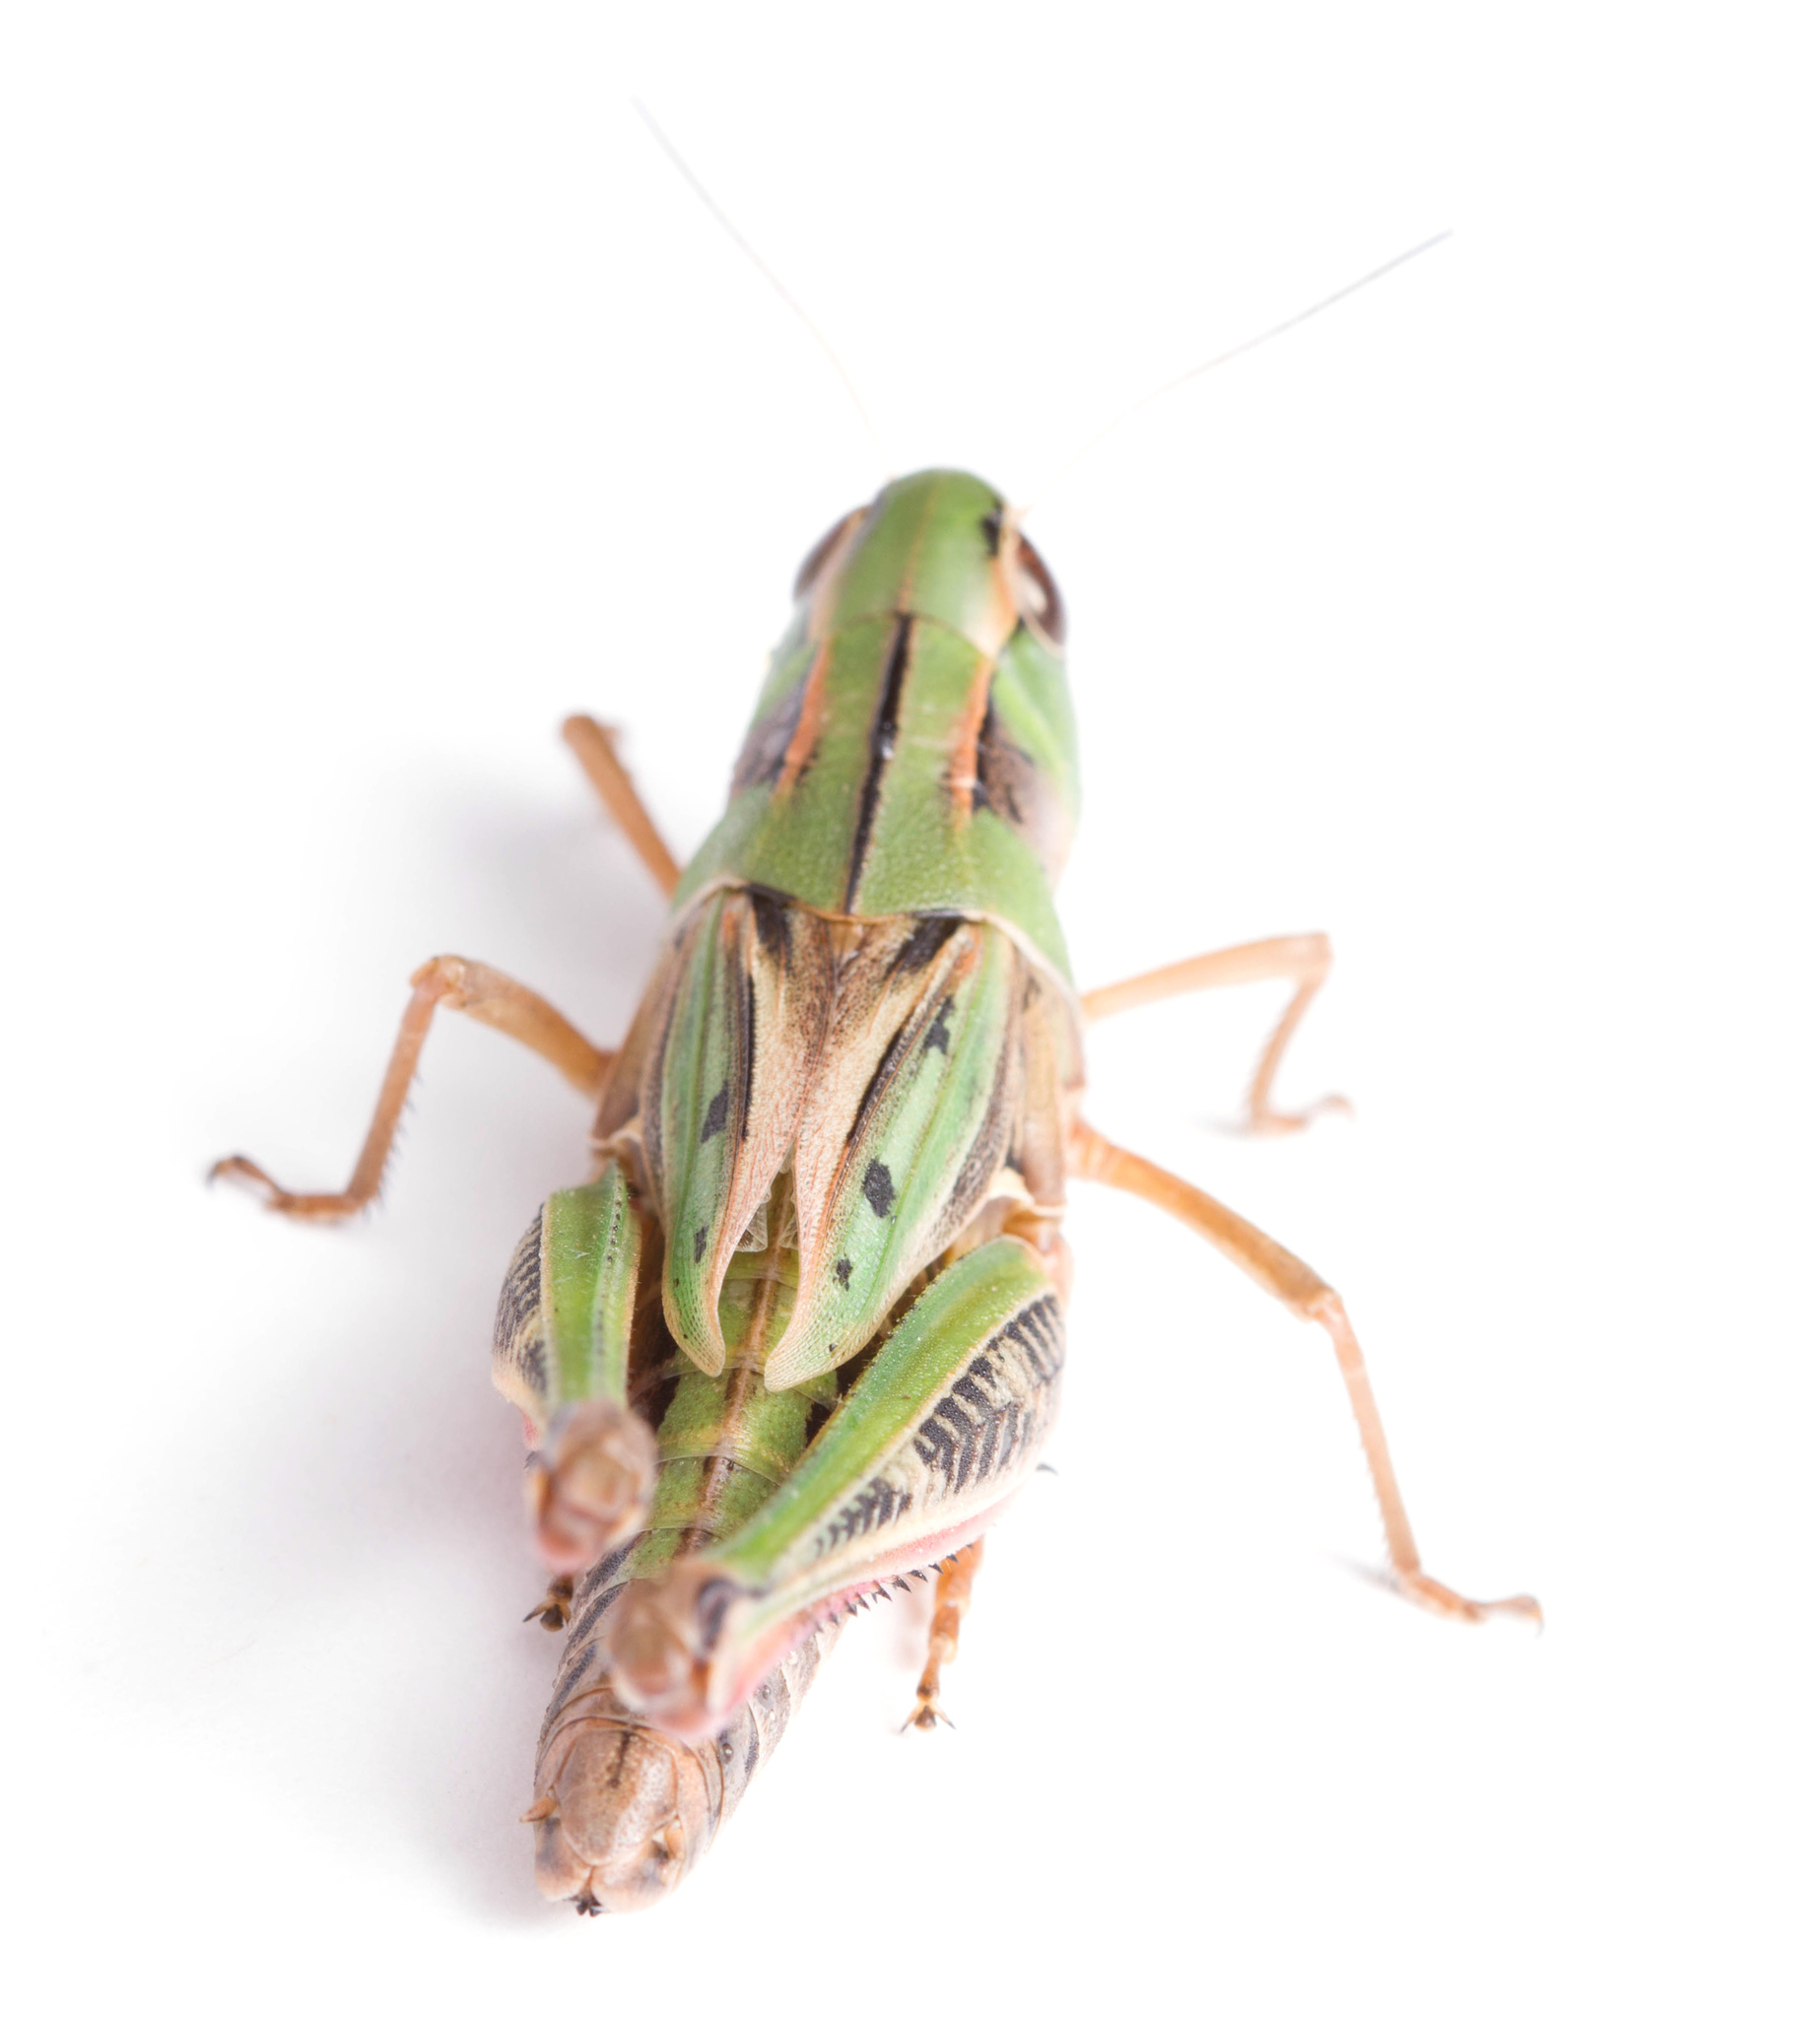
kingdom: Animalia
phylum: Arthropoda
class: Insecta
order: Orthoptera
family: Acrididae
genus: Boopedon
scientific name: Boopedon gracile
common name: Graceful range grasshopper
